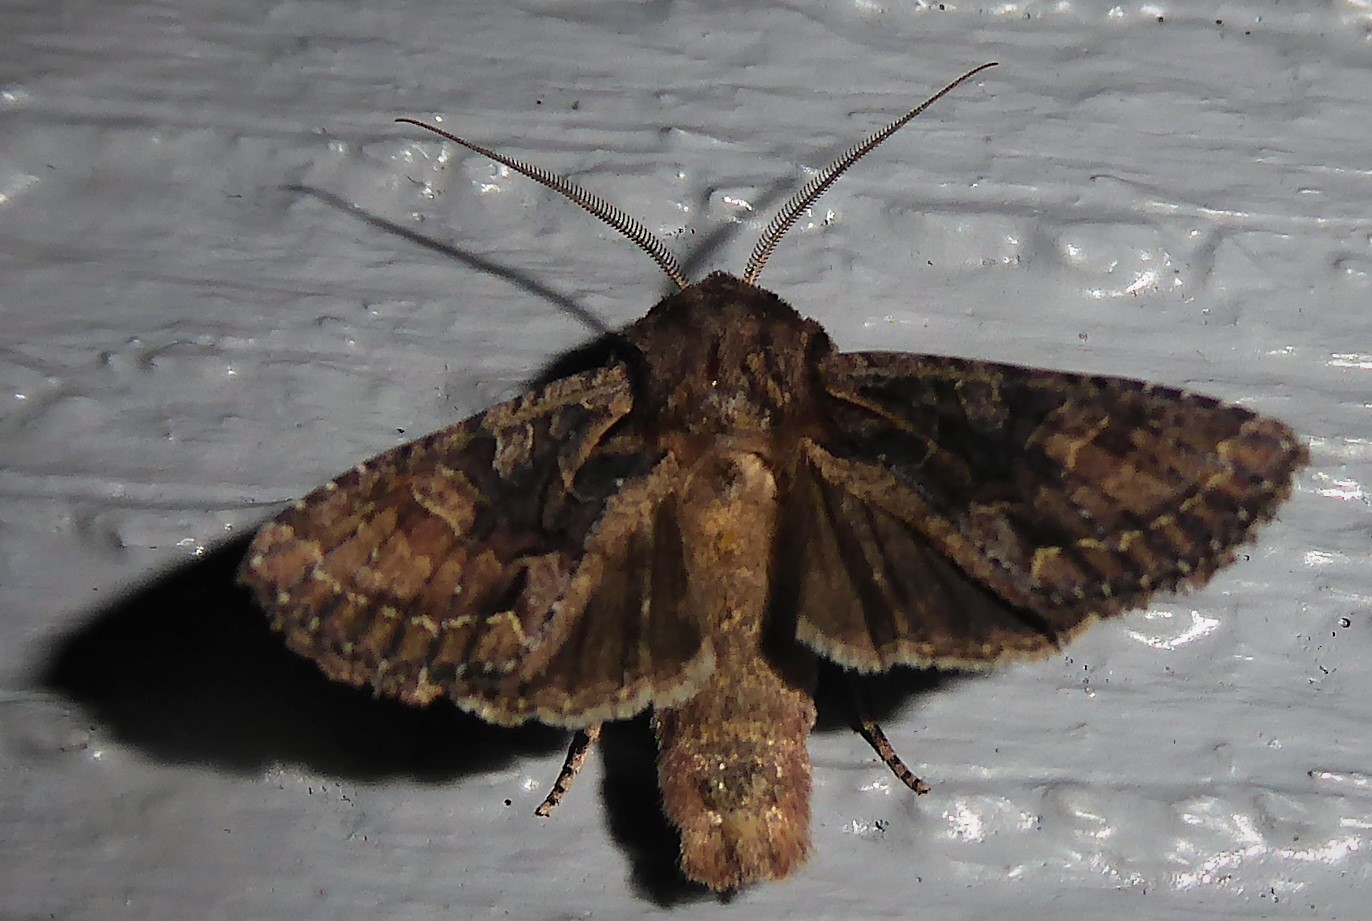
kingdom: Animalia
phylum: Arthropoda
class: Insecta
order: Lepidoptera
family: Noctuidae
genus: Ichneutica
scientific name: Ichneutica mutans
